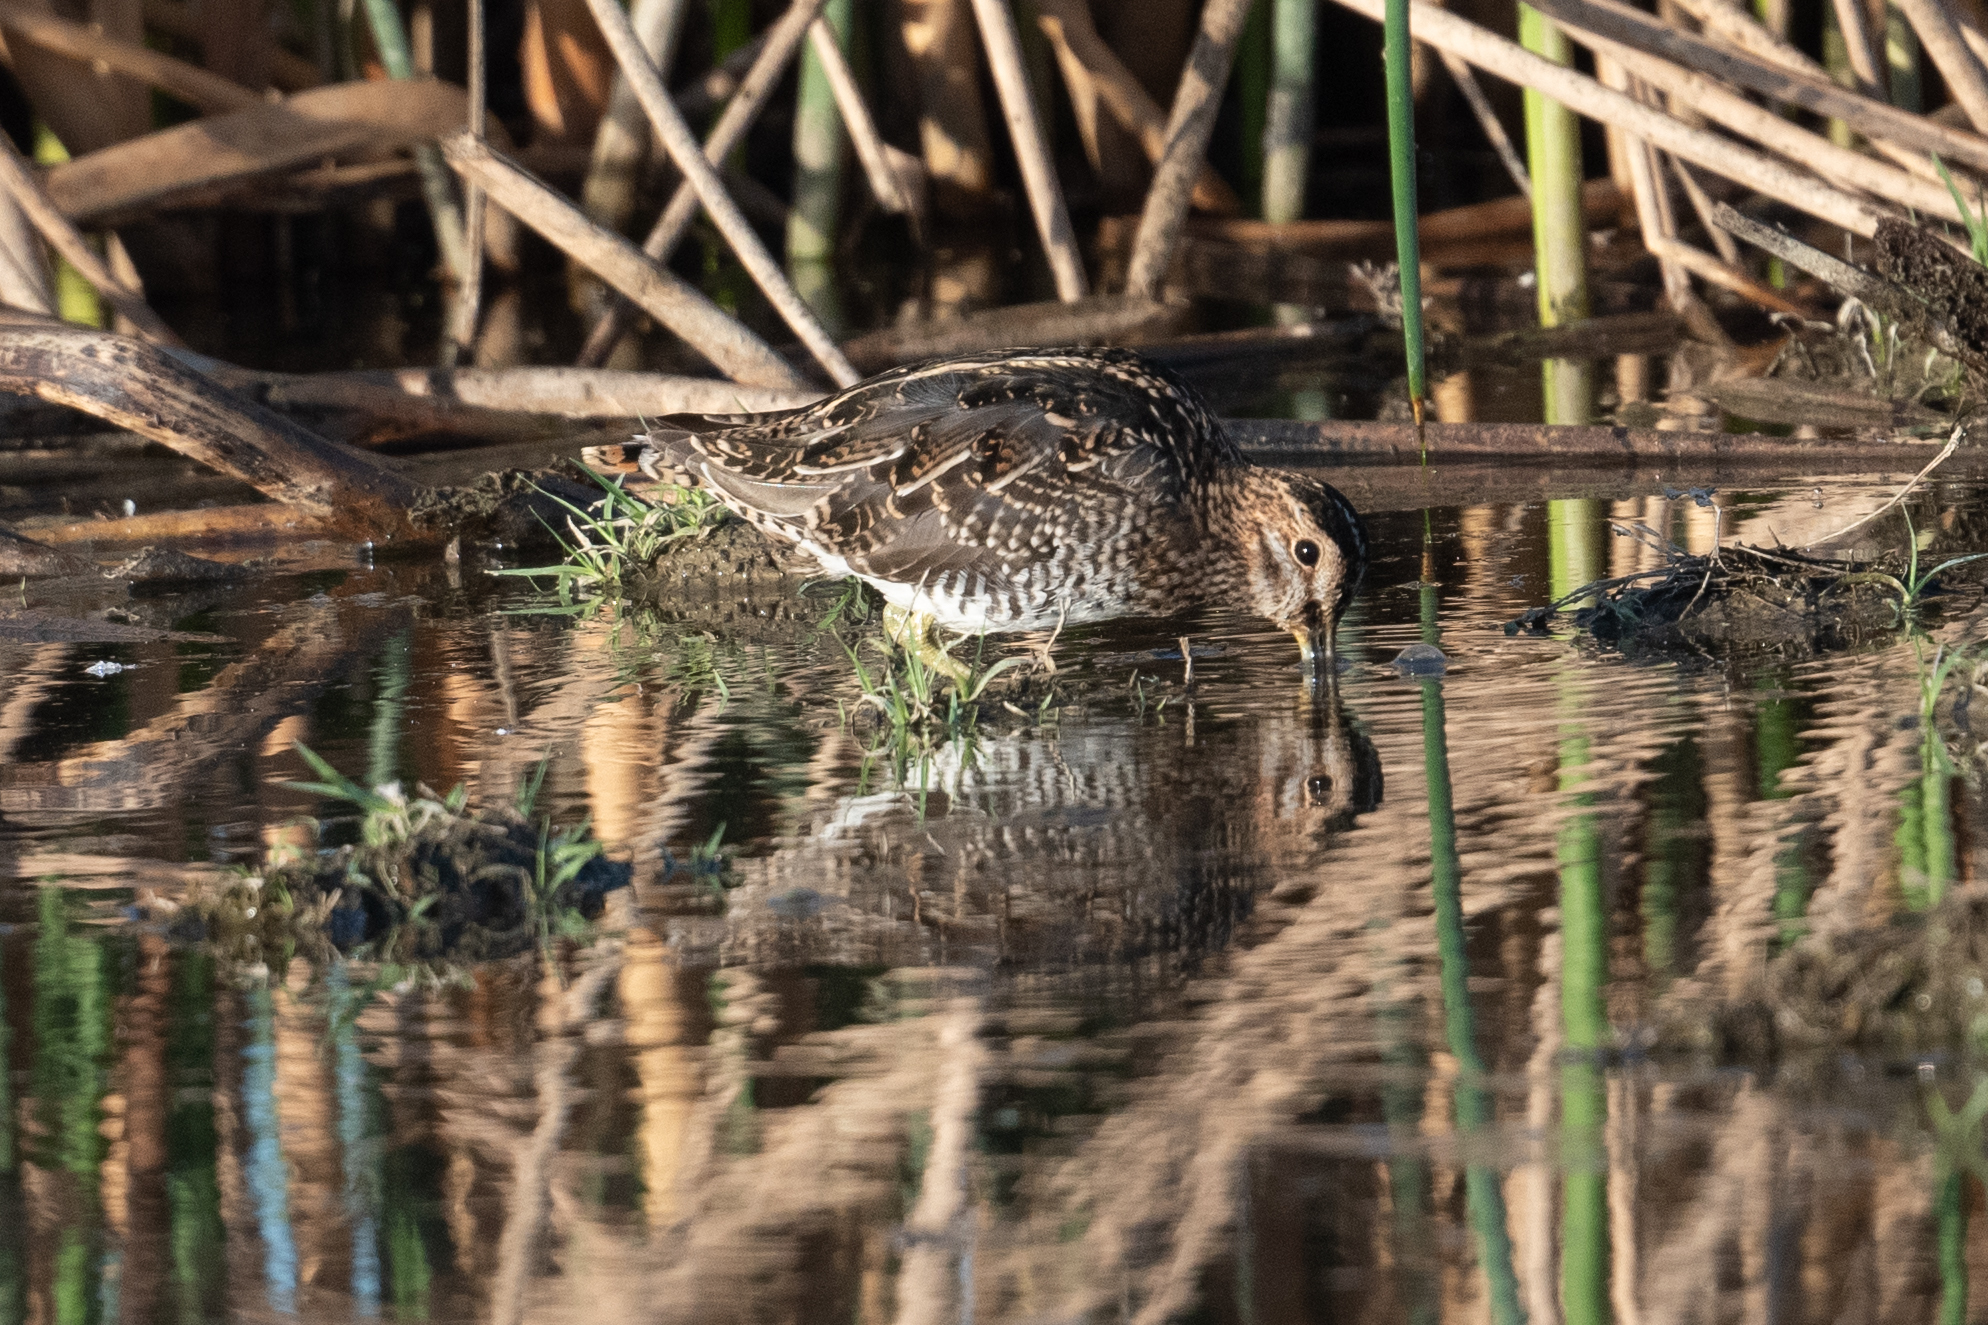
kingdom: Animalia
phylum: Chordata
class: Aves
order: Charadriiformes
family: Scolopacidae
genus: Gallinago
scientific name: Gallinago delicata
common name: Wilson's snipe
